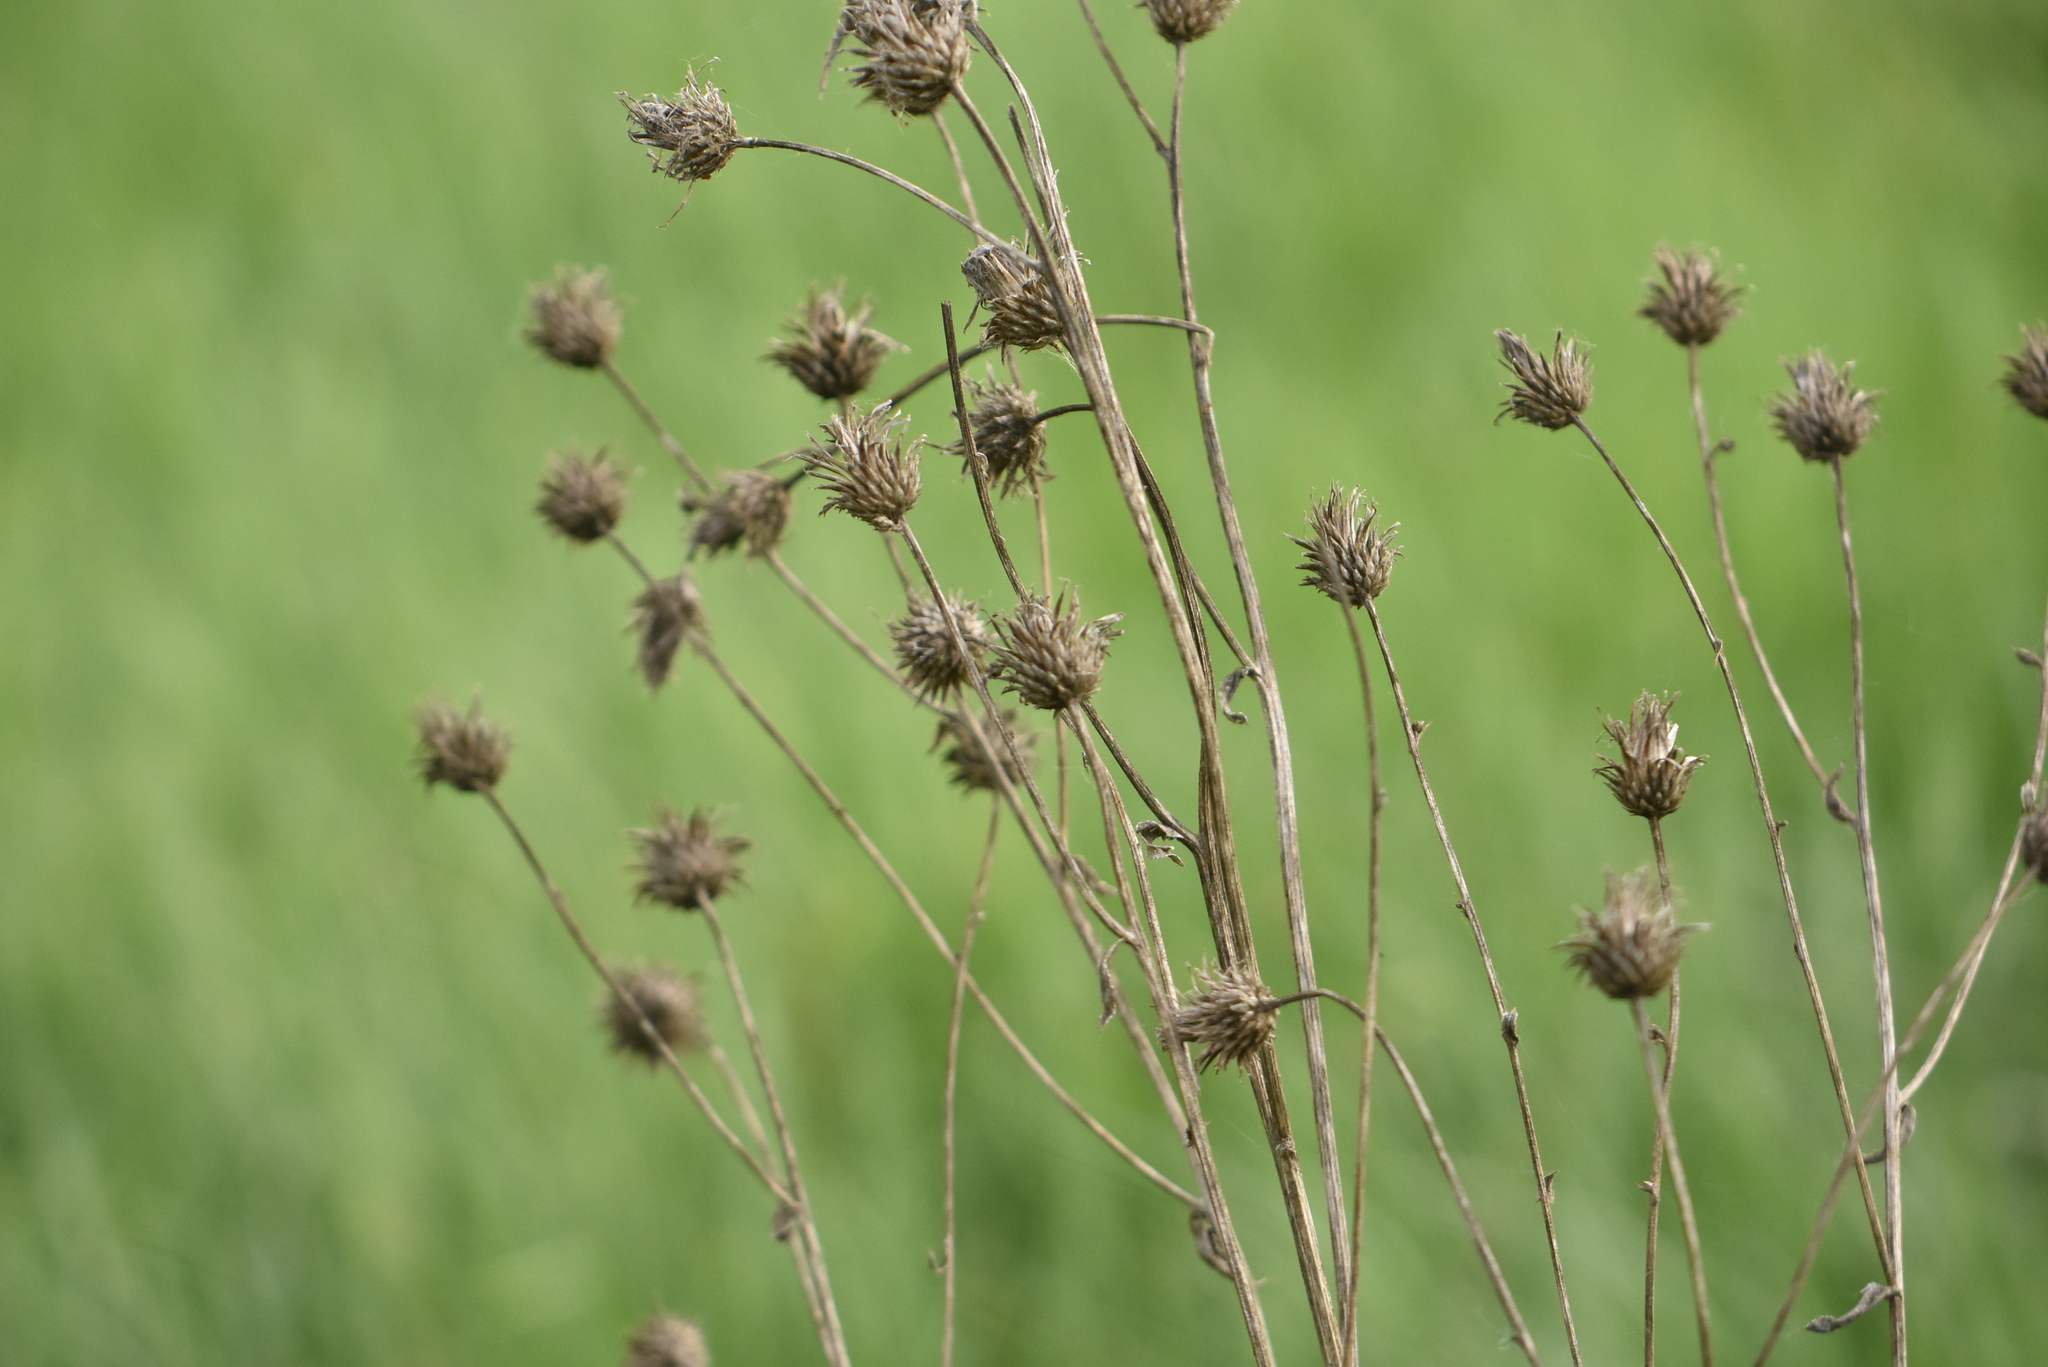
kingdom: Plantae
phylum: Tracheophyta
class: Magnoliopsida
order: Asterales
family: Asteraceae
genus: Centaurea
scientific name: Centaurea scabiosa
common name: Greater knapweed
